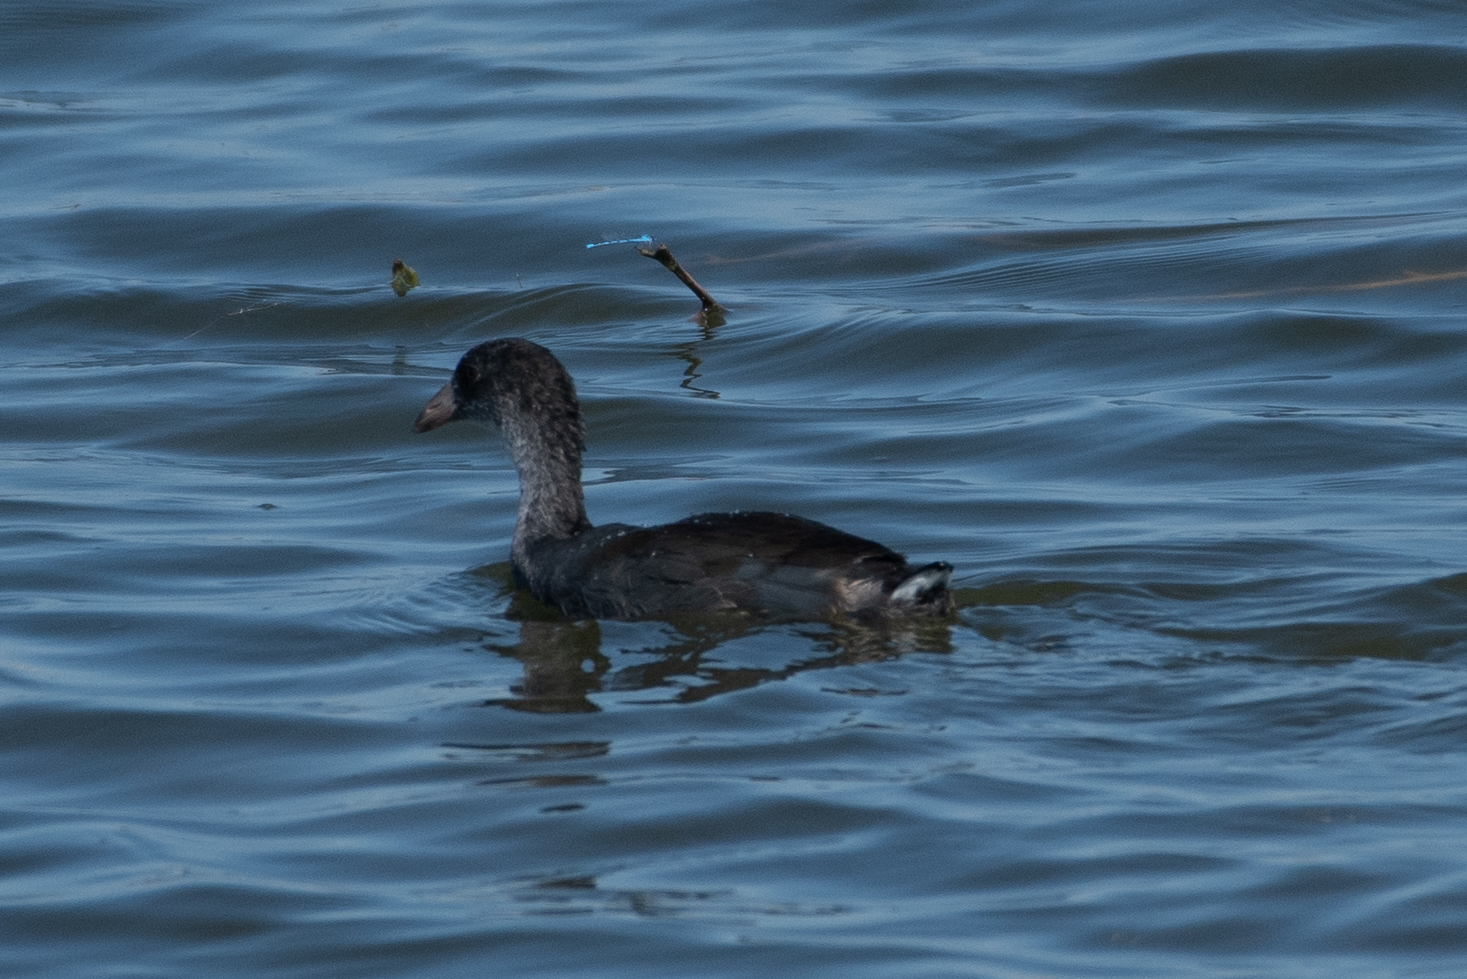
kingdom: Animalia
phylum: Chordata
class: Aves
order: Gruiformes
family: Rallidae
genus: Fulica
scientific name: Fulica americana
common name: American coot
